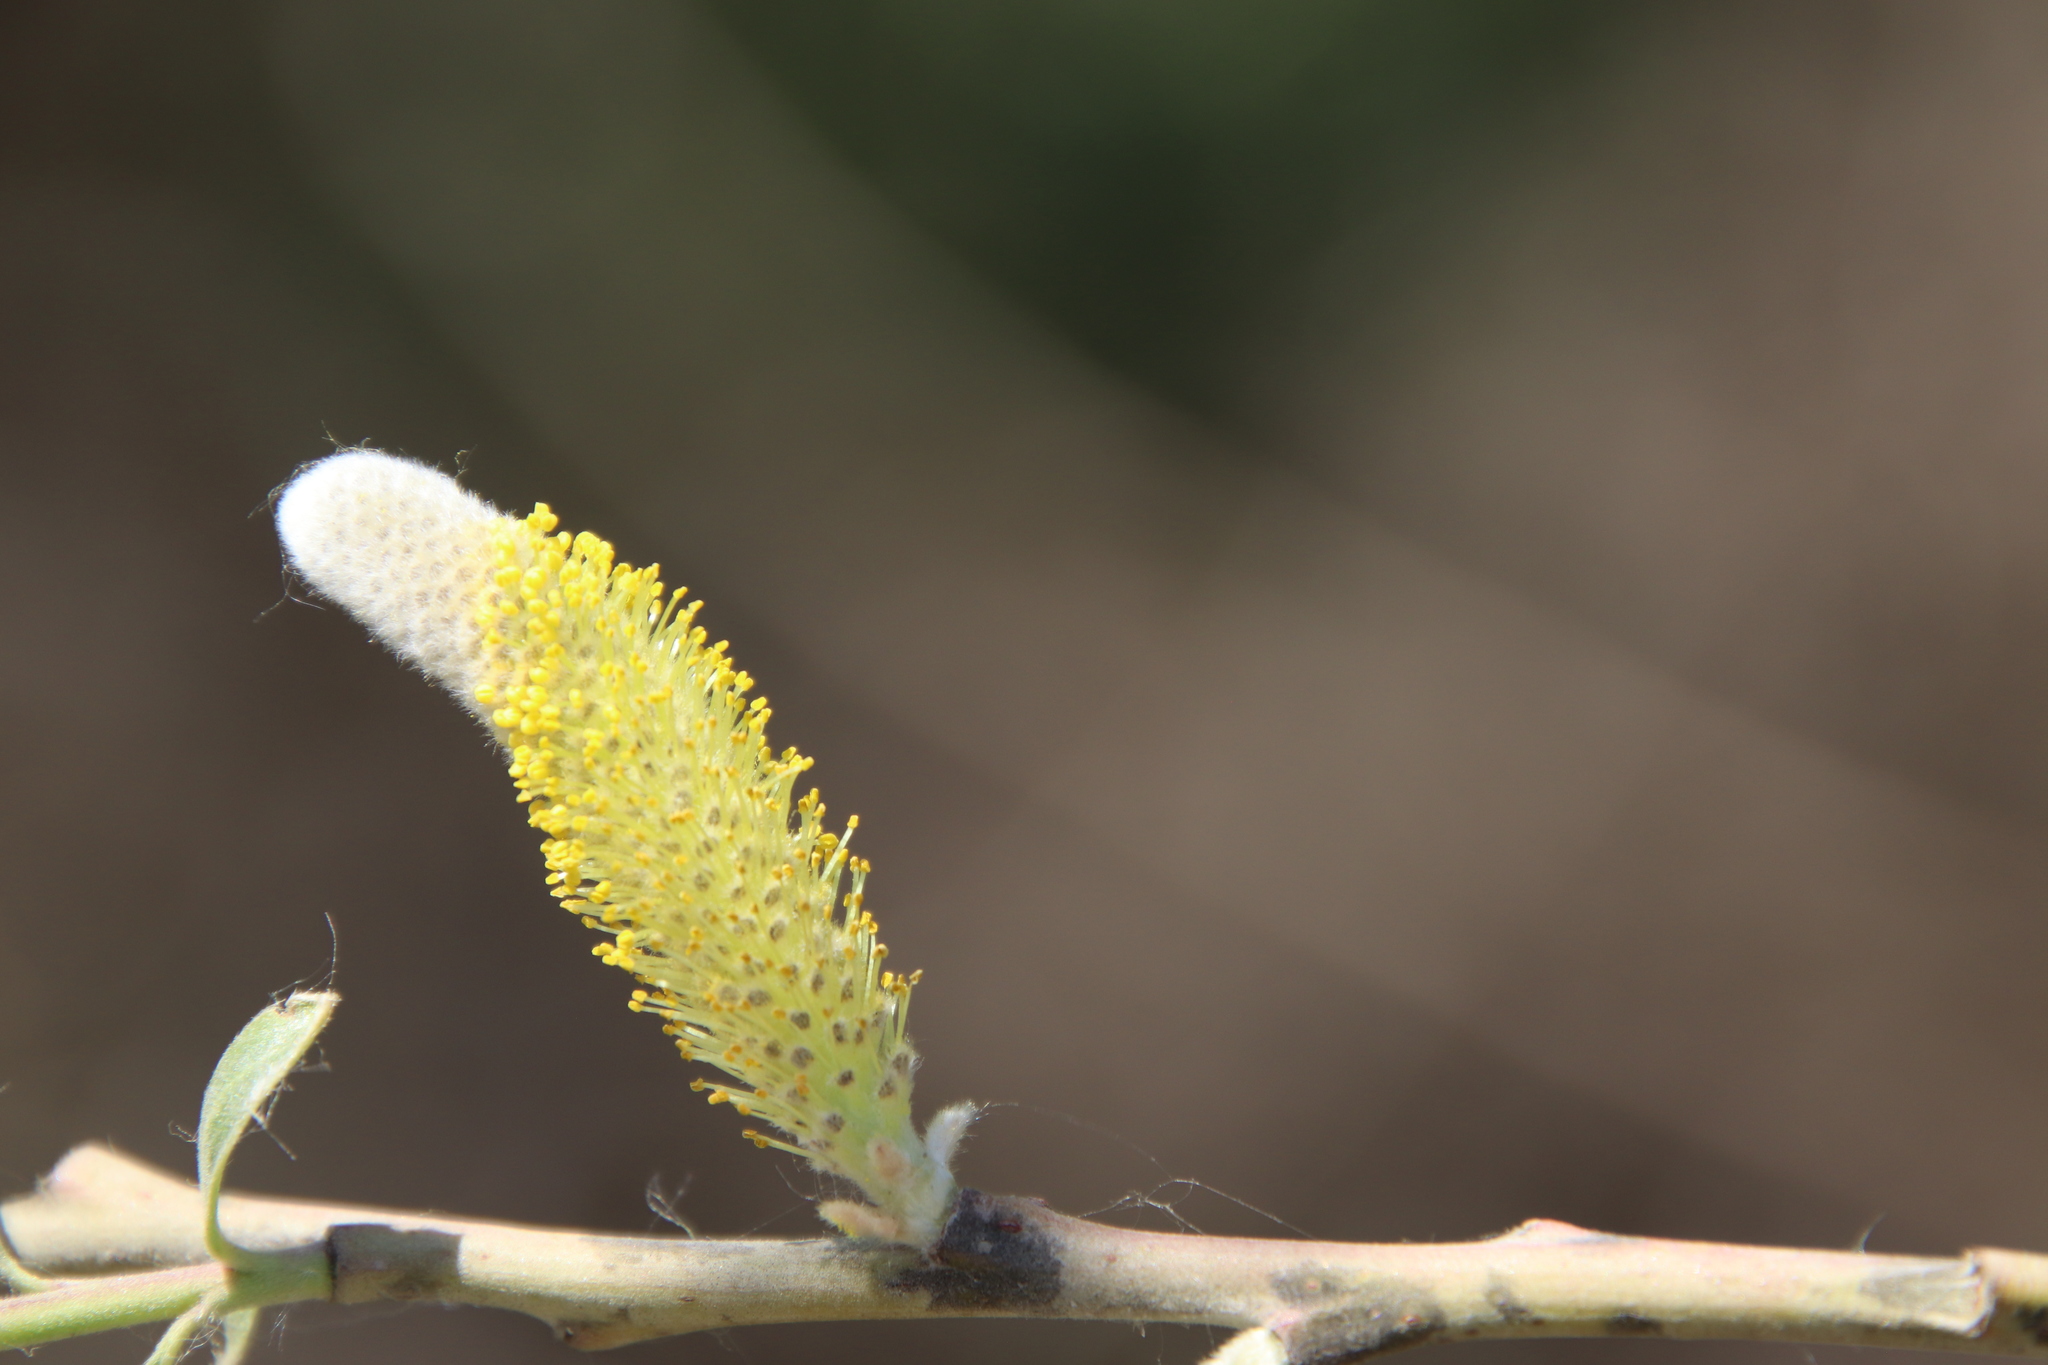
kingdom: Plantae
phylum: Tracheophyta
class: Magnoliopsida
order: Malpighiales
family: Salicaceae
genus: Salix
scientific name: Salix lasiolepis
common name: Arroyo willow
